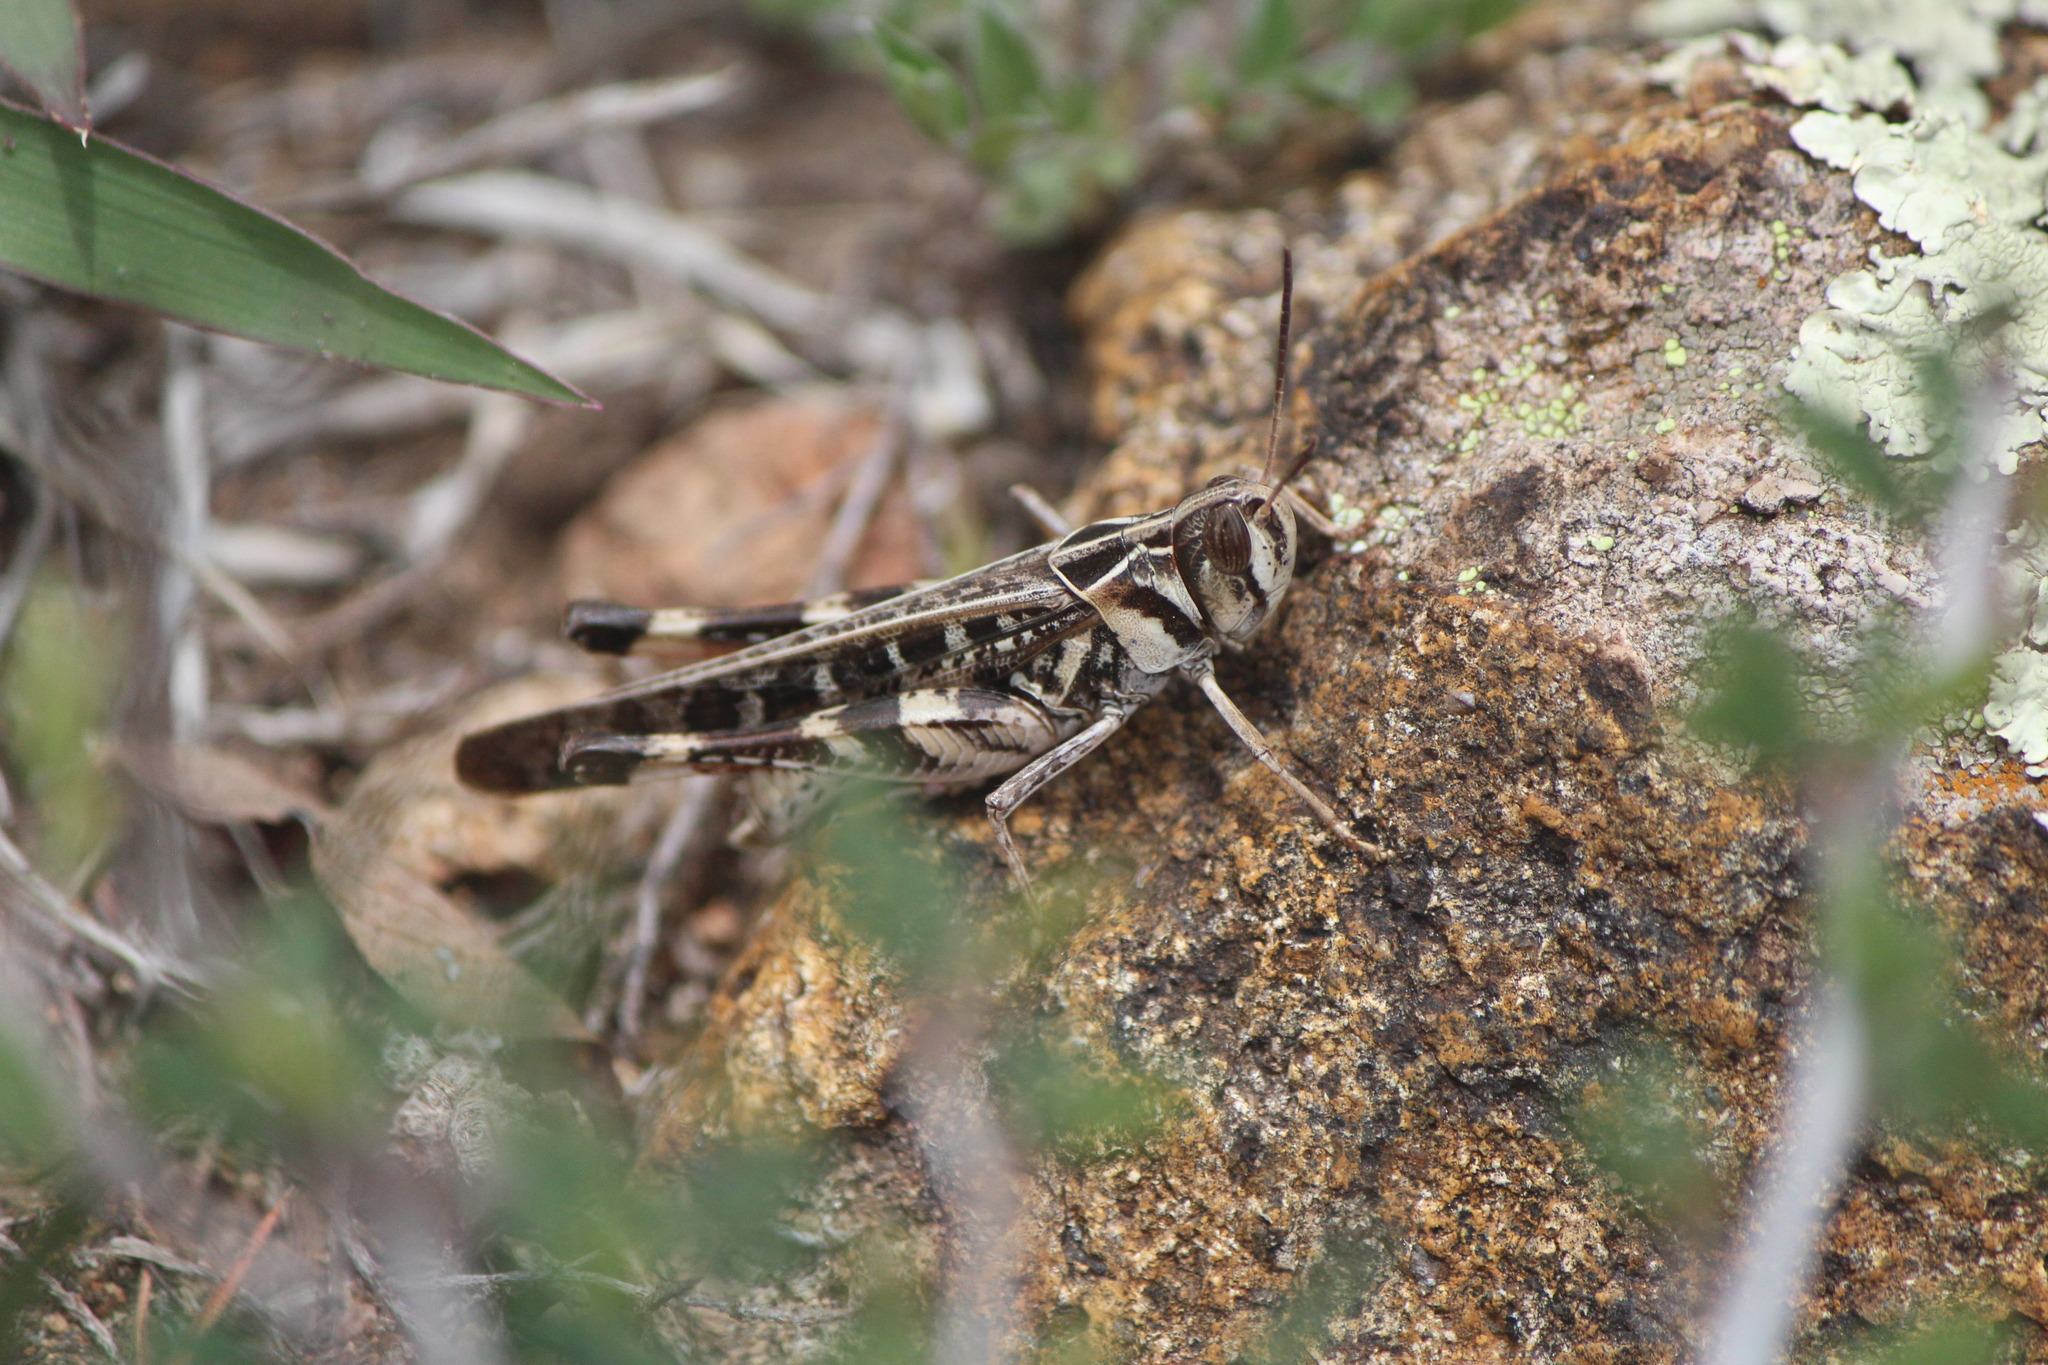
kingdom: Animalia
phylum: Arthropoda
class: Insecta
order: Orthoptera
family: Acrididae
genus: Rhammatocerus
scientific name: Rhammatocerus viatorius
